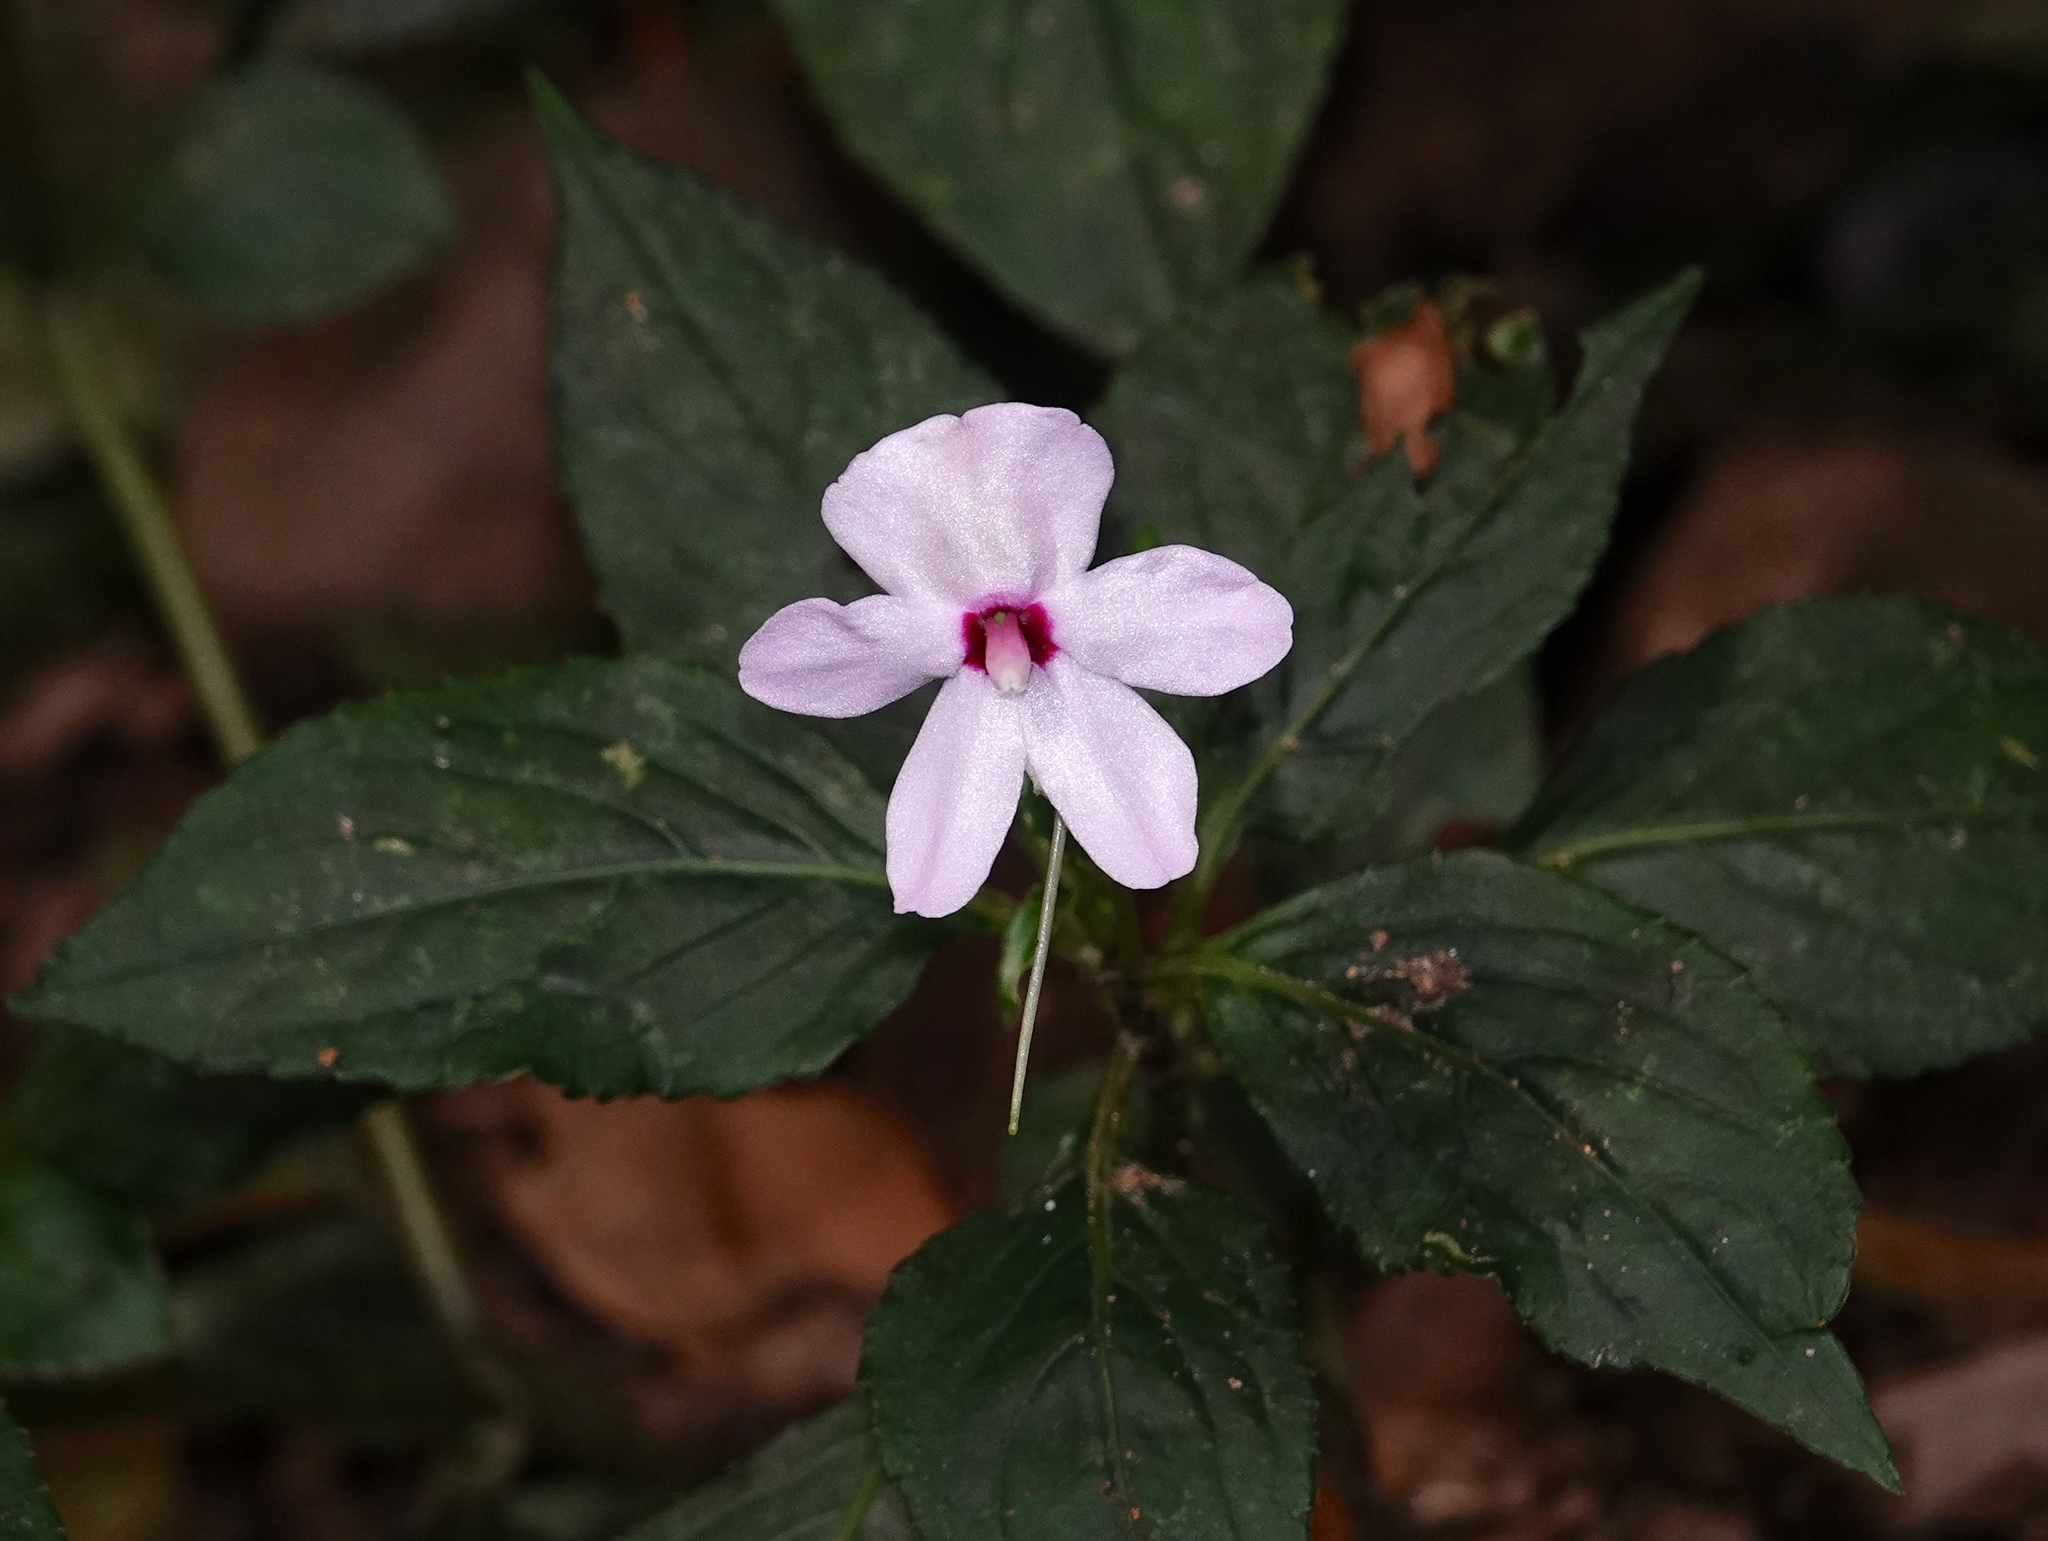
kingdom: Plantae
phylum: Tracheophyta
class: Magnoliopsida
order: Ericales
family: Balsaminaceae
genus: Impatiens
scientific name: Impatiens javensis
